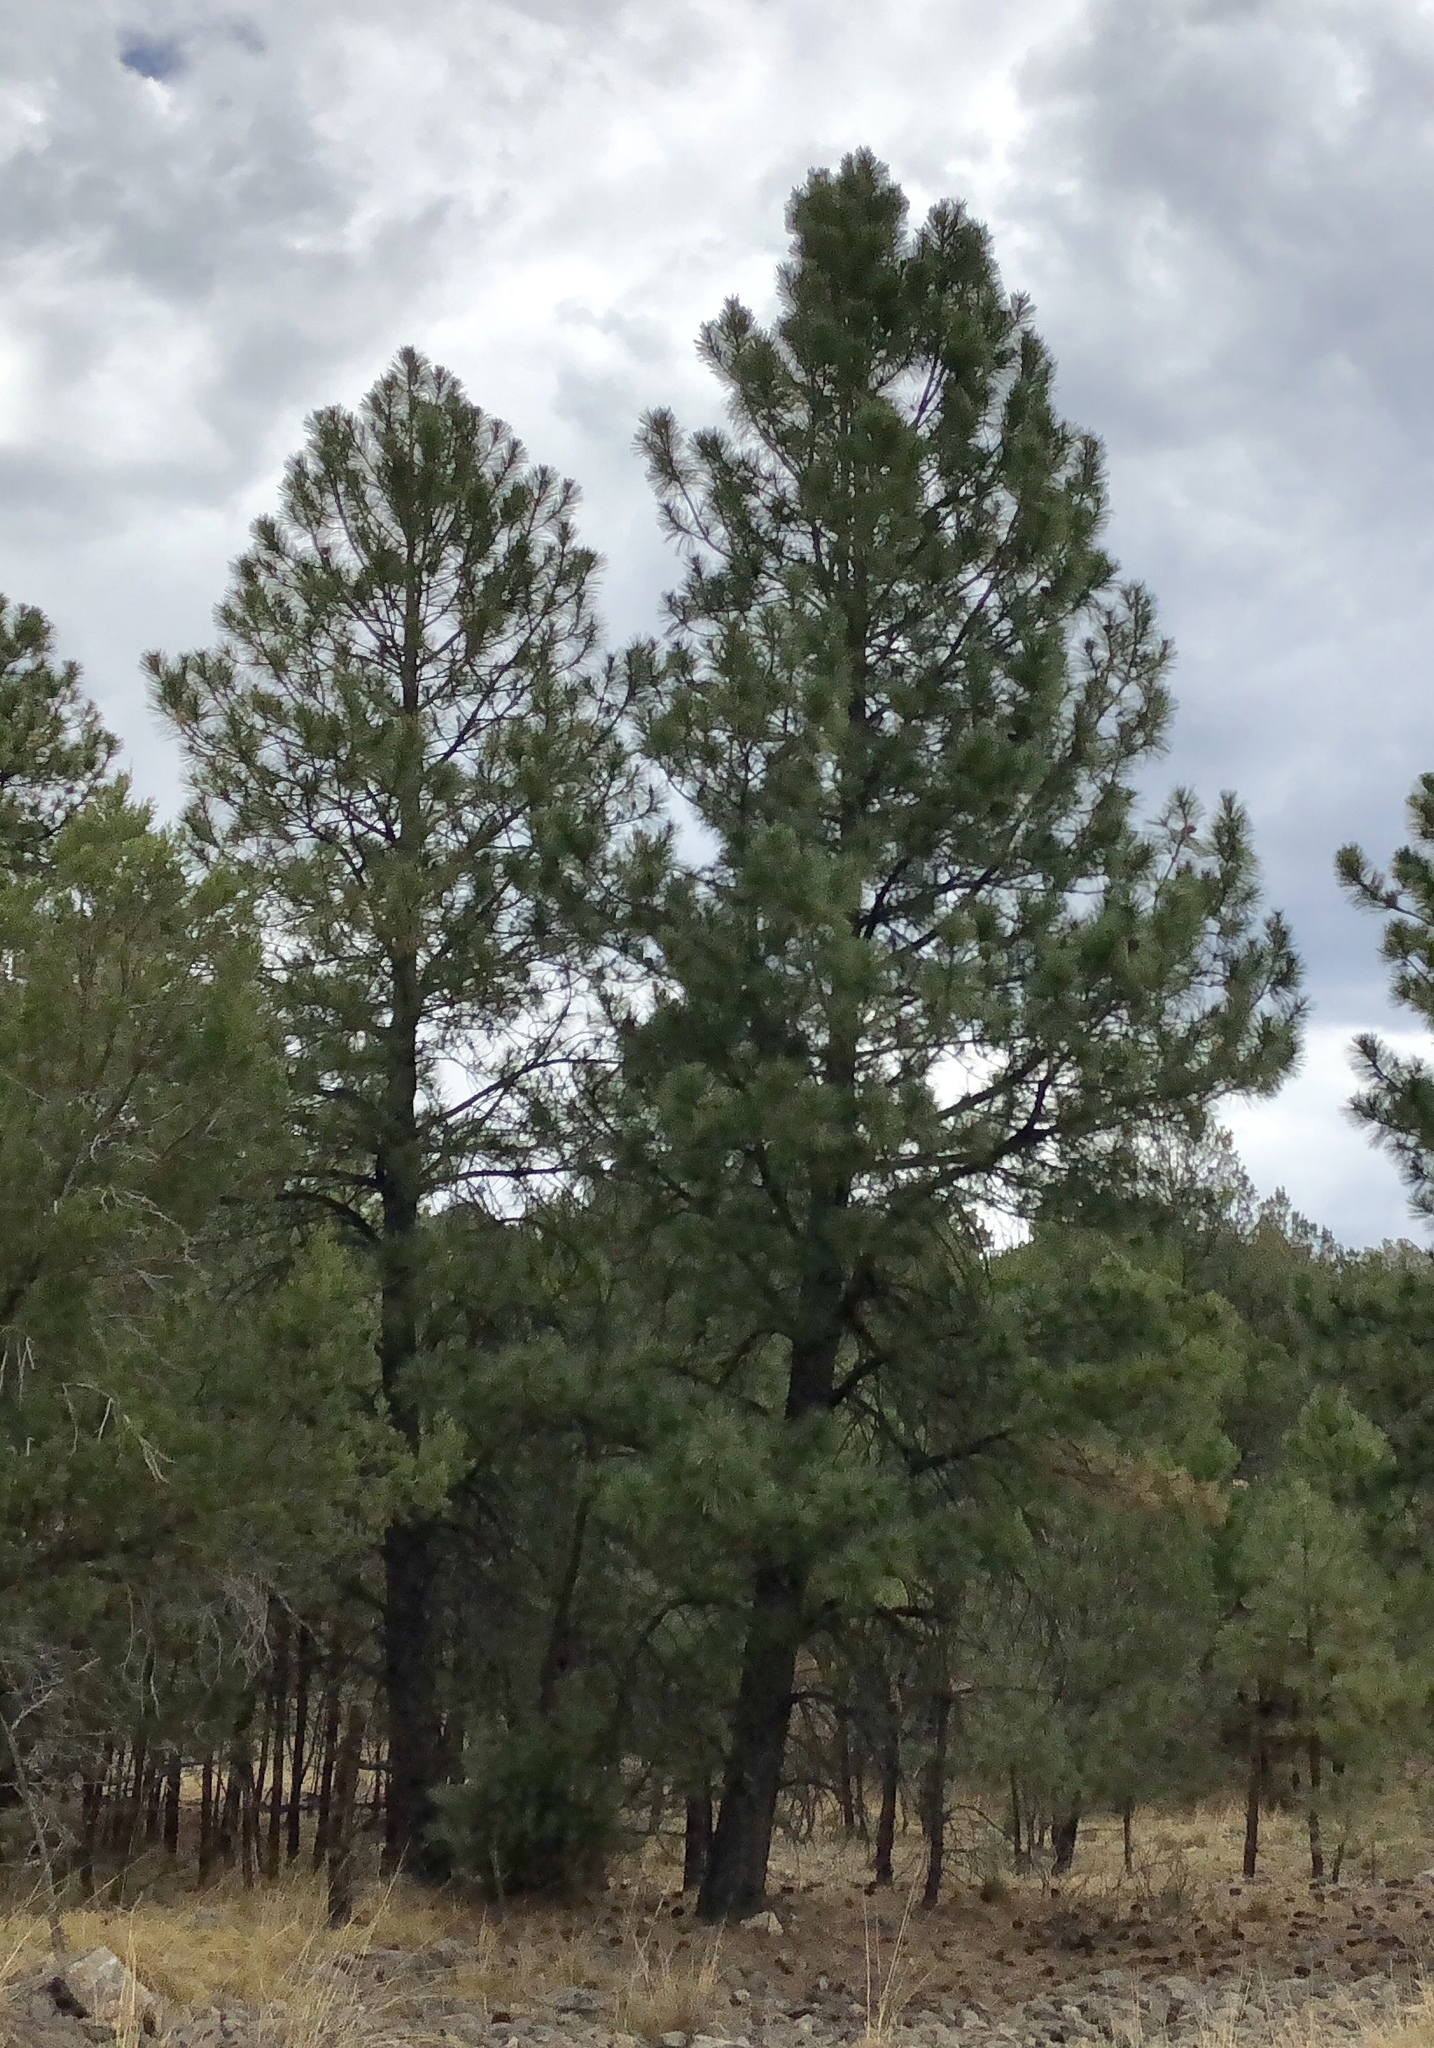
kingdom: Plantae
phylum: Tracheophyta
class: Pinopsida
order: Pinales
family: Pinaceae
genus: Pinus
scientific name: Pinus ponderosa
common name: Western yellow-pine
